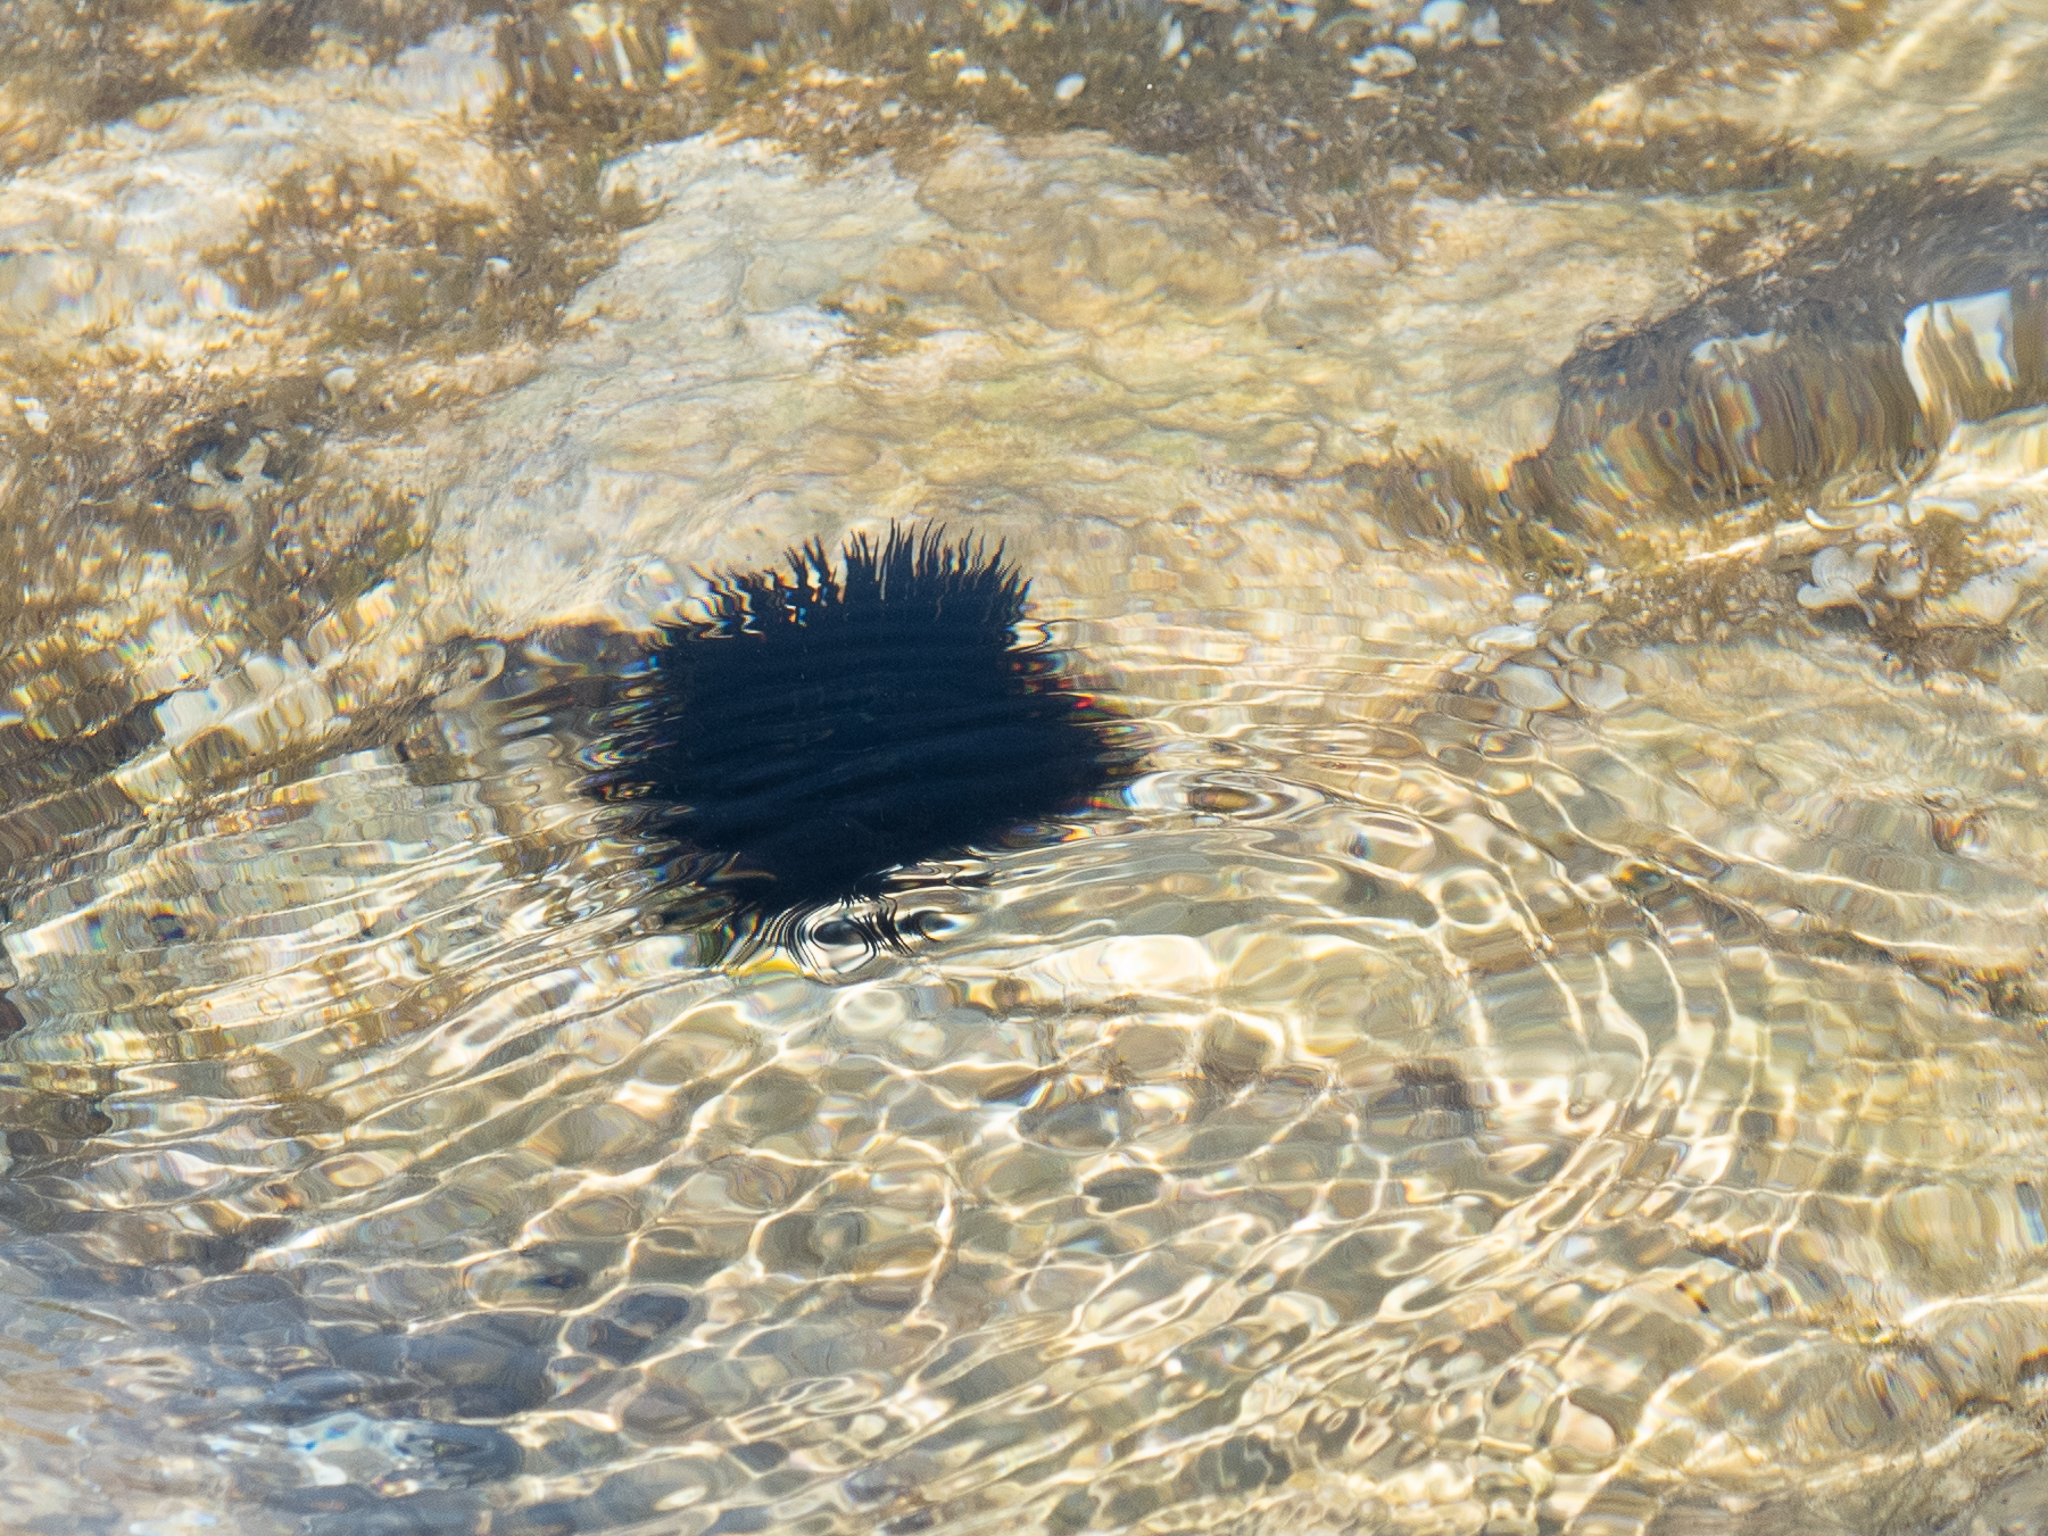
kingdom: Animalia
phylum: Echinodermata
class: Echinoidea
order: Arbacioida
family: Arbaciidae
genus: Arbacia
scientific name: Arbacia lixula
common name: Black sea urchin
